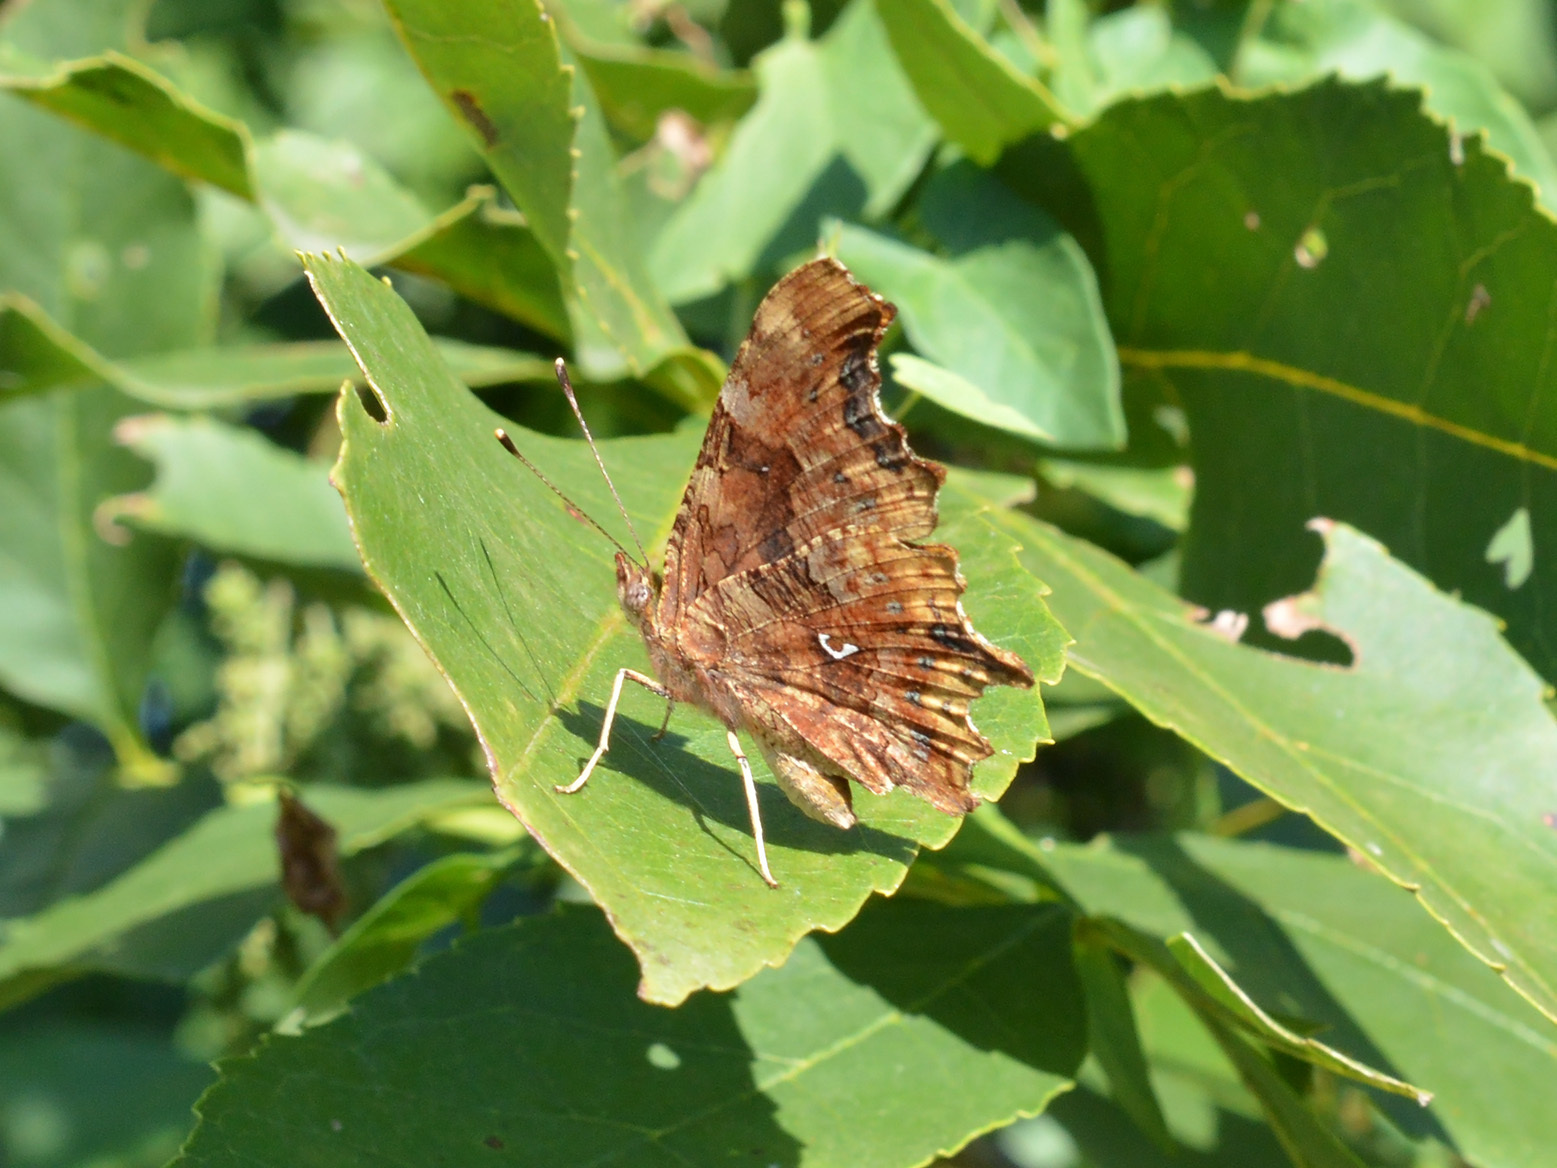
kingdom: Animalia
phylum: Arthropoda
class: Insecta
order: Lepidoptera
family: Nymphalidae
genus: Polygonia
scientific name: Polygonia c-album
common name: Comma
